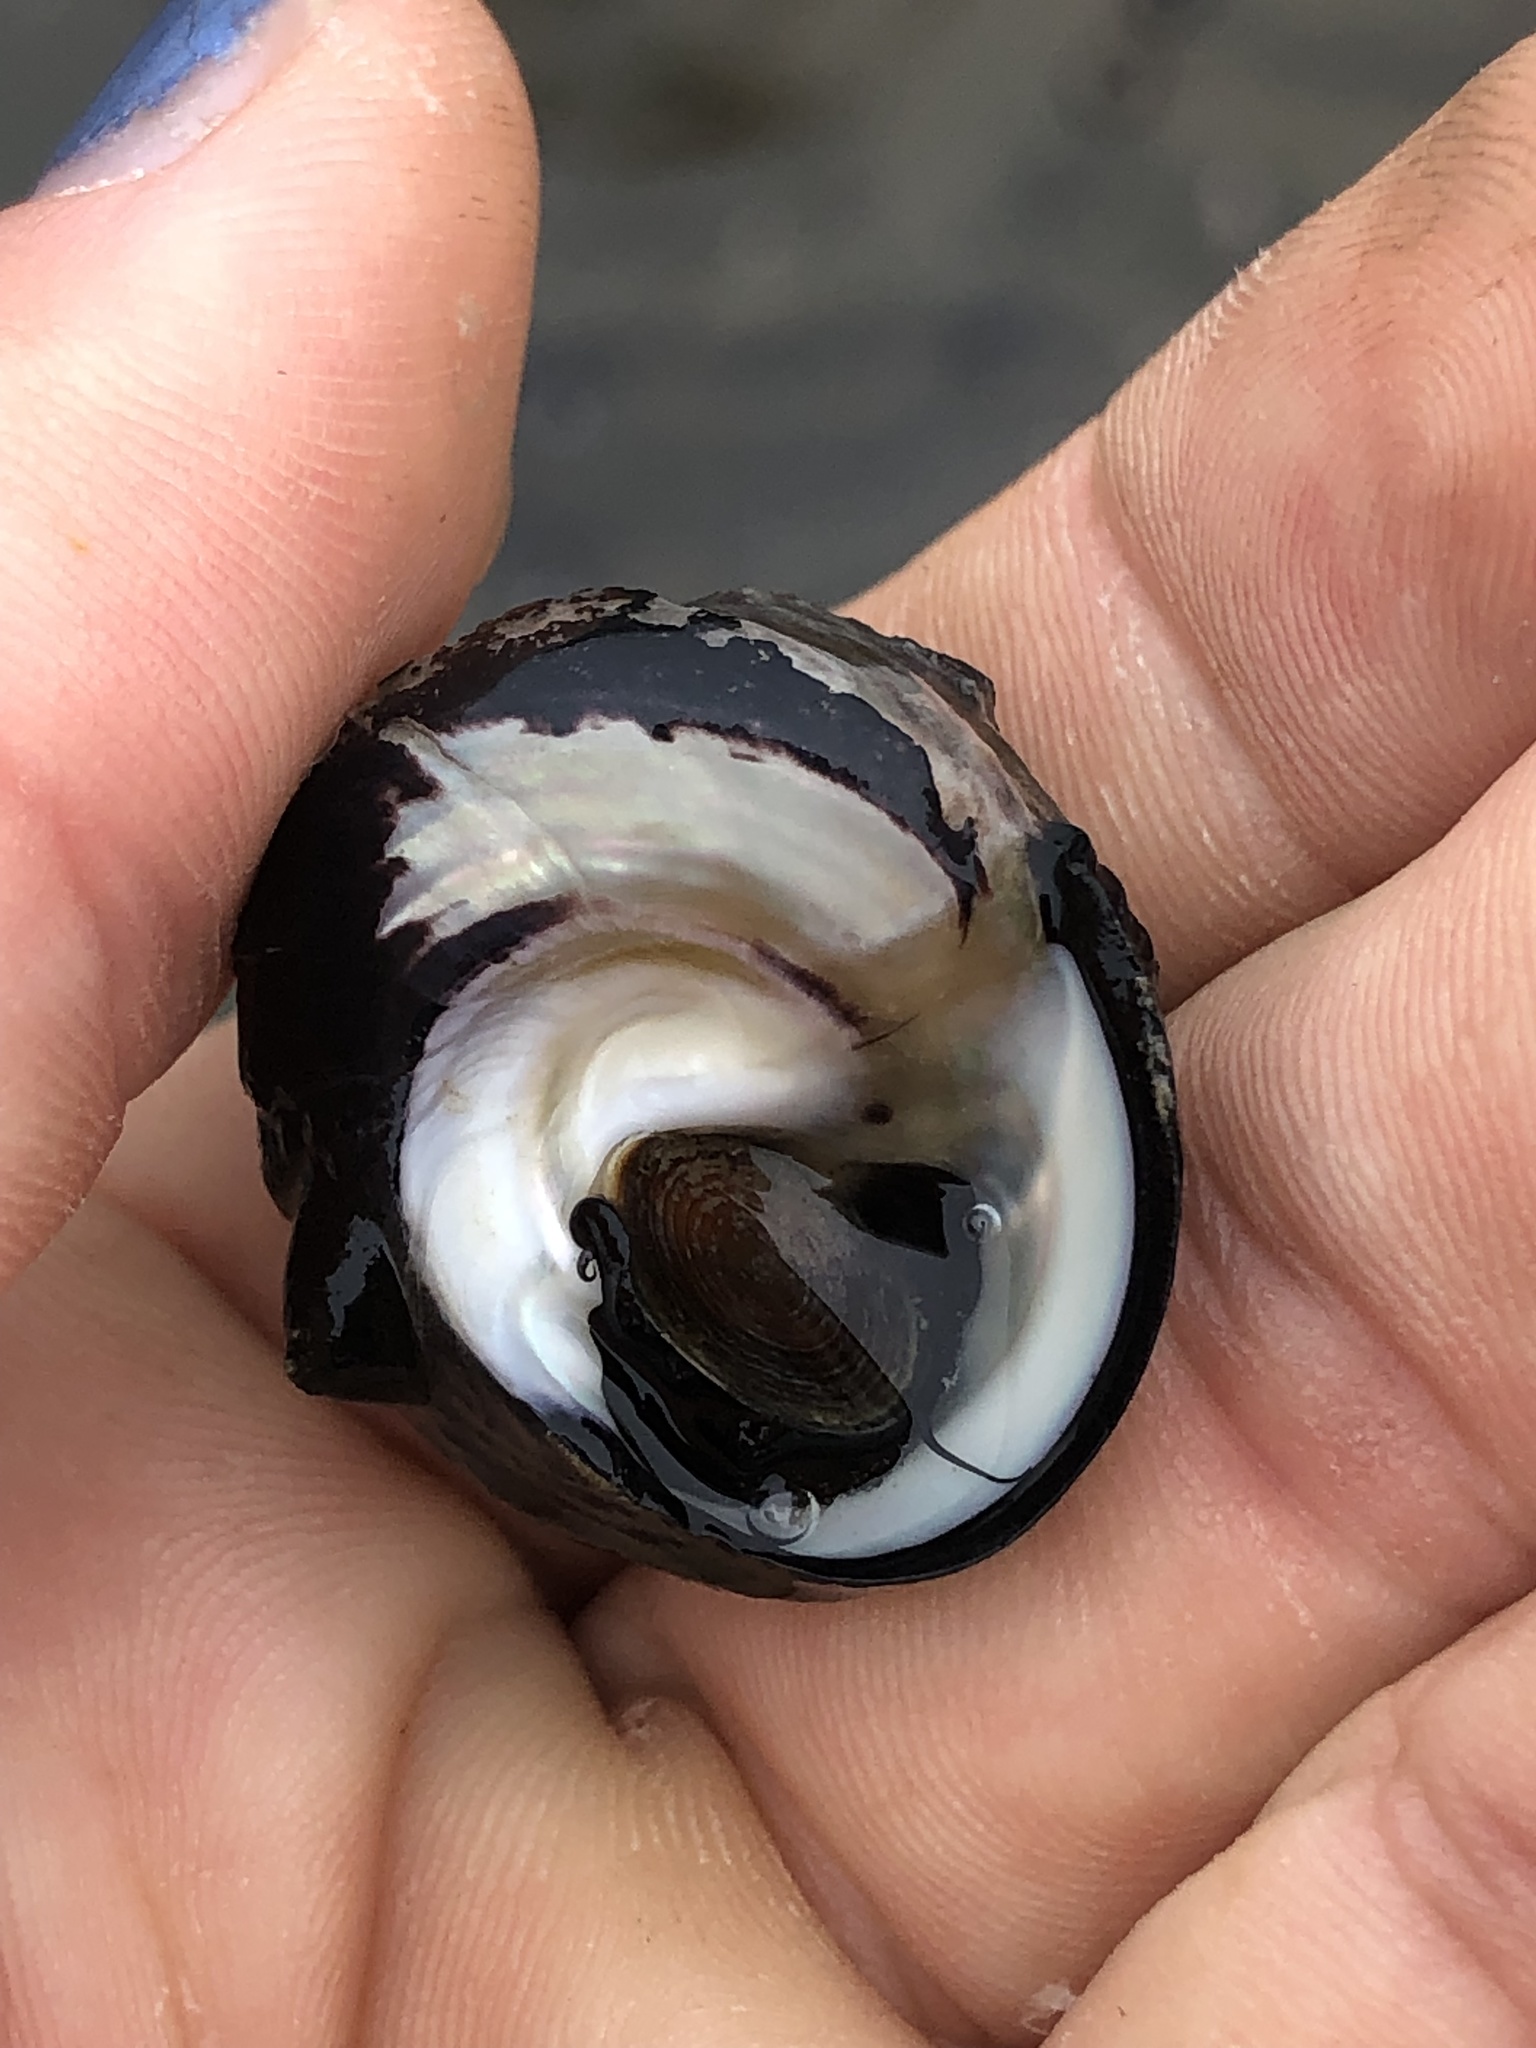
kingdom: Animalia
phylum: Mollusca
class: Gastropoda
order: Trochida
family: Tegulidae
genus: Tegula
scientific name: Tegula funebralis
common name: Black tegula
